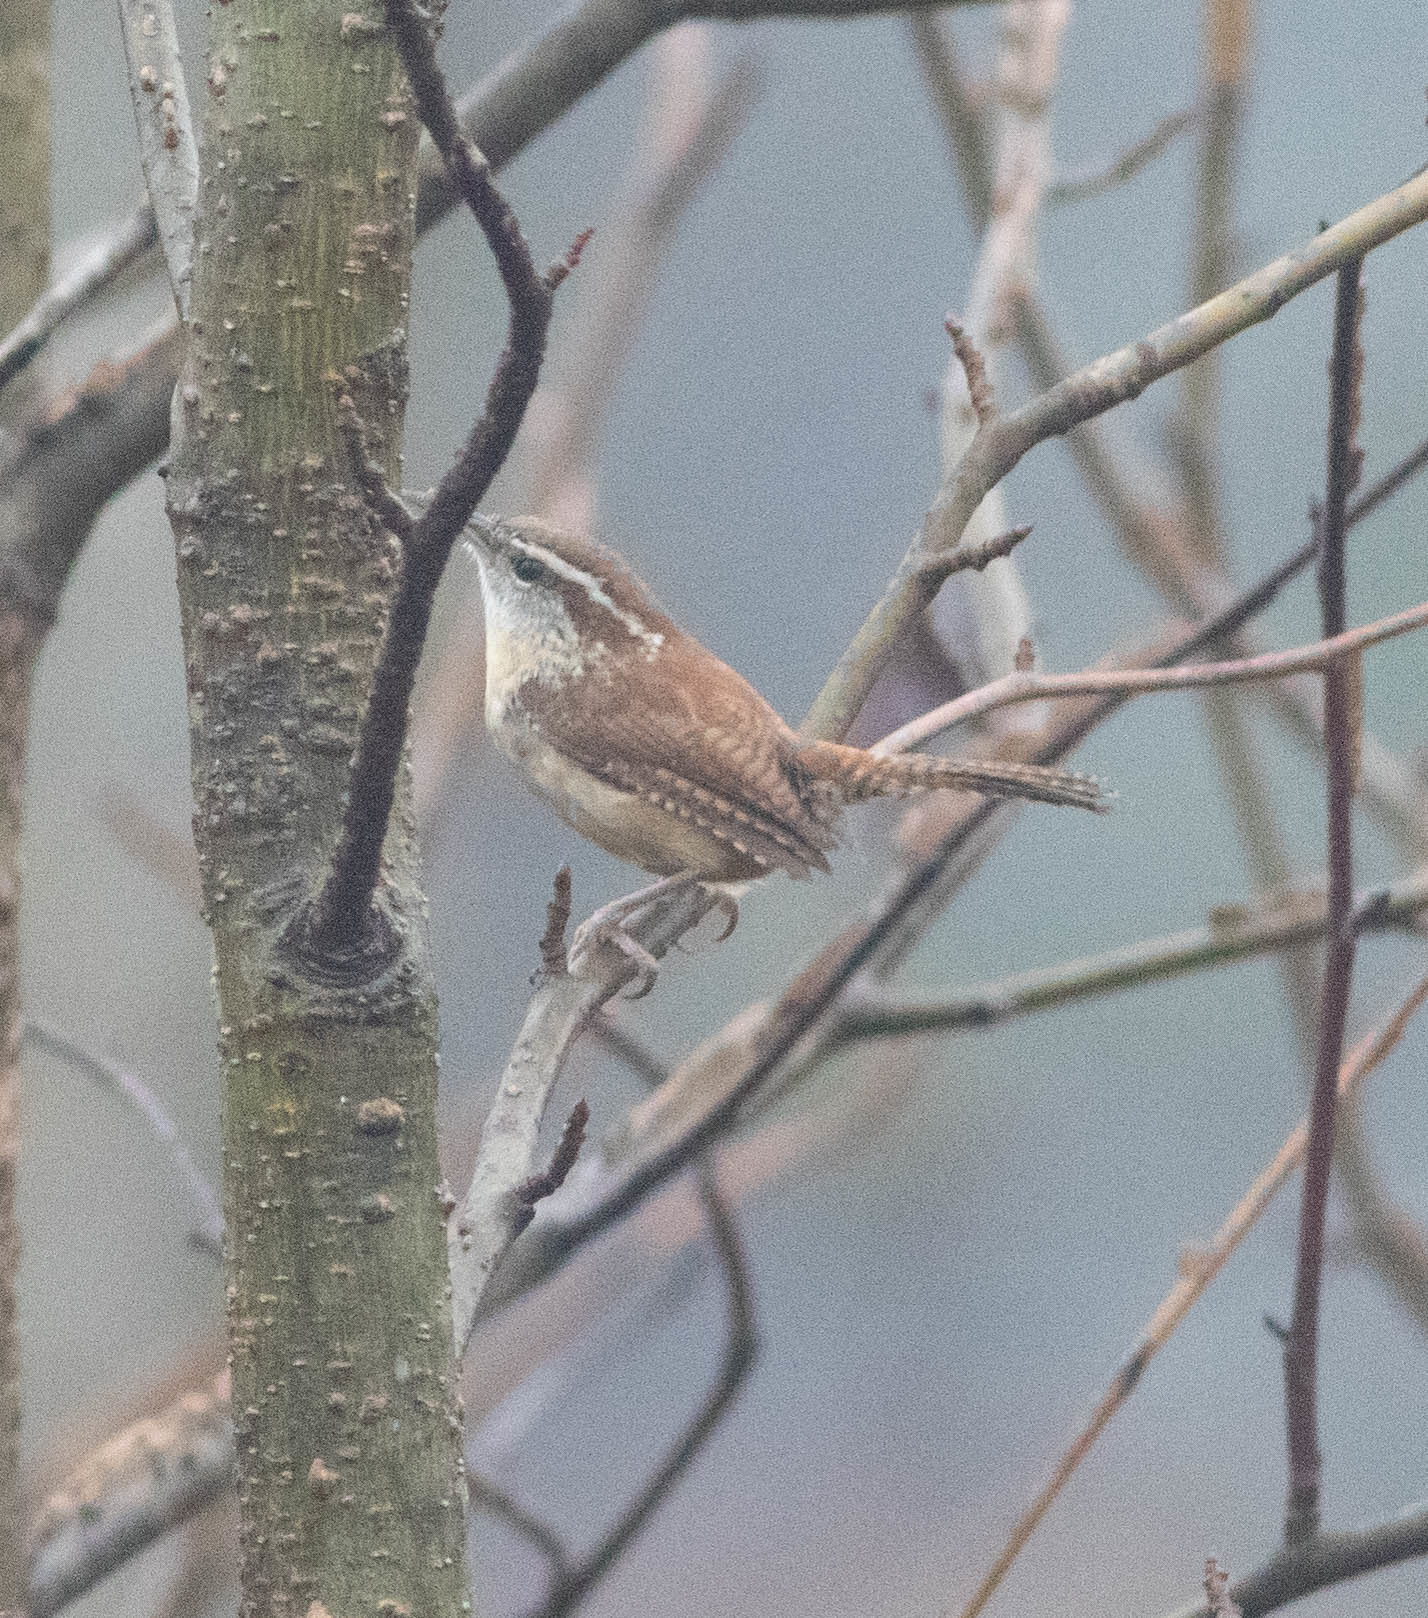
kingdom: Animalia
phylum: Chordata
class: Aves
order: Passeriformes
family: Troglodytidae
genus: Thryothorus
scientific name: Thryothorus ludovicianus
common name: Carolina wren
